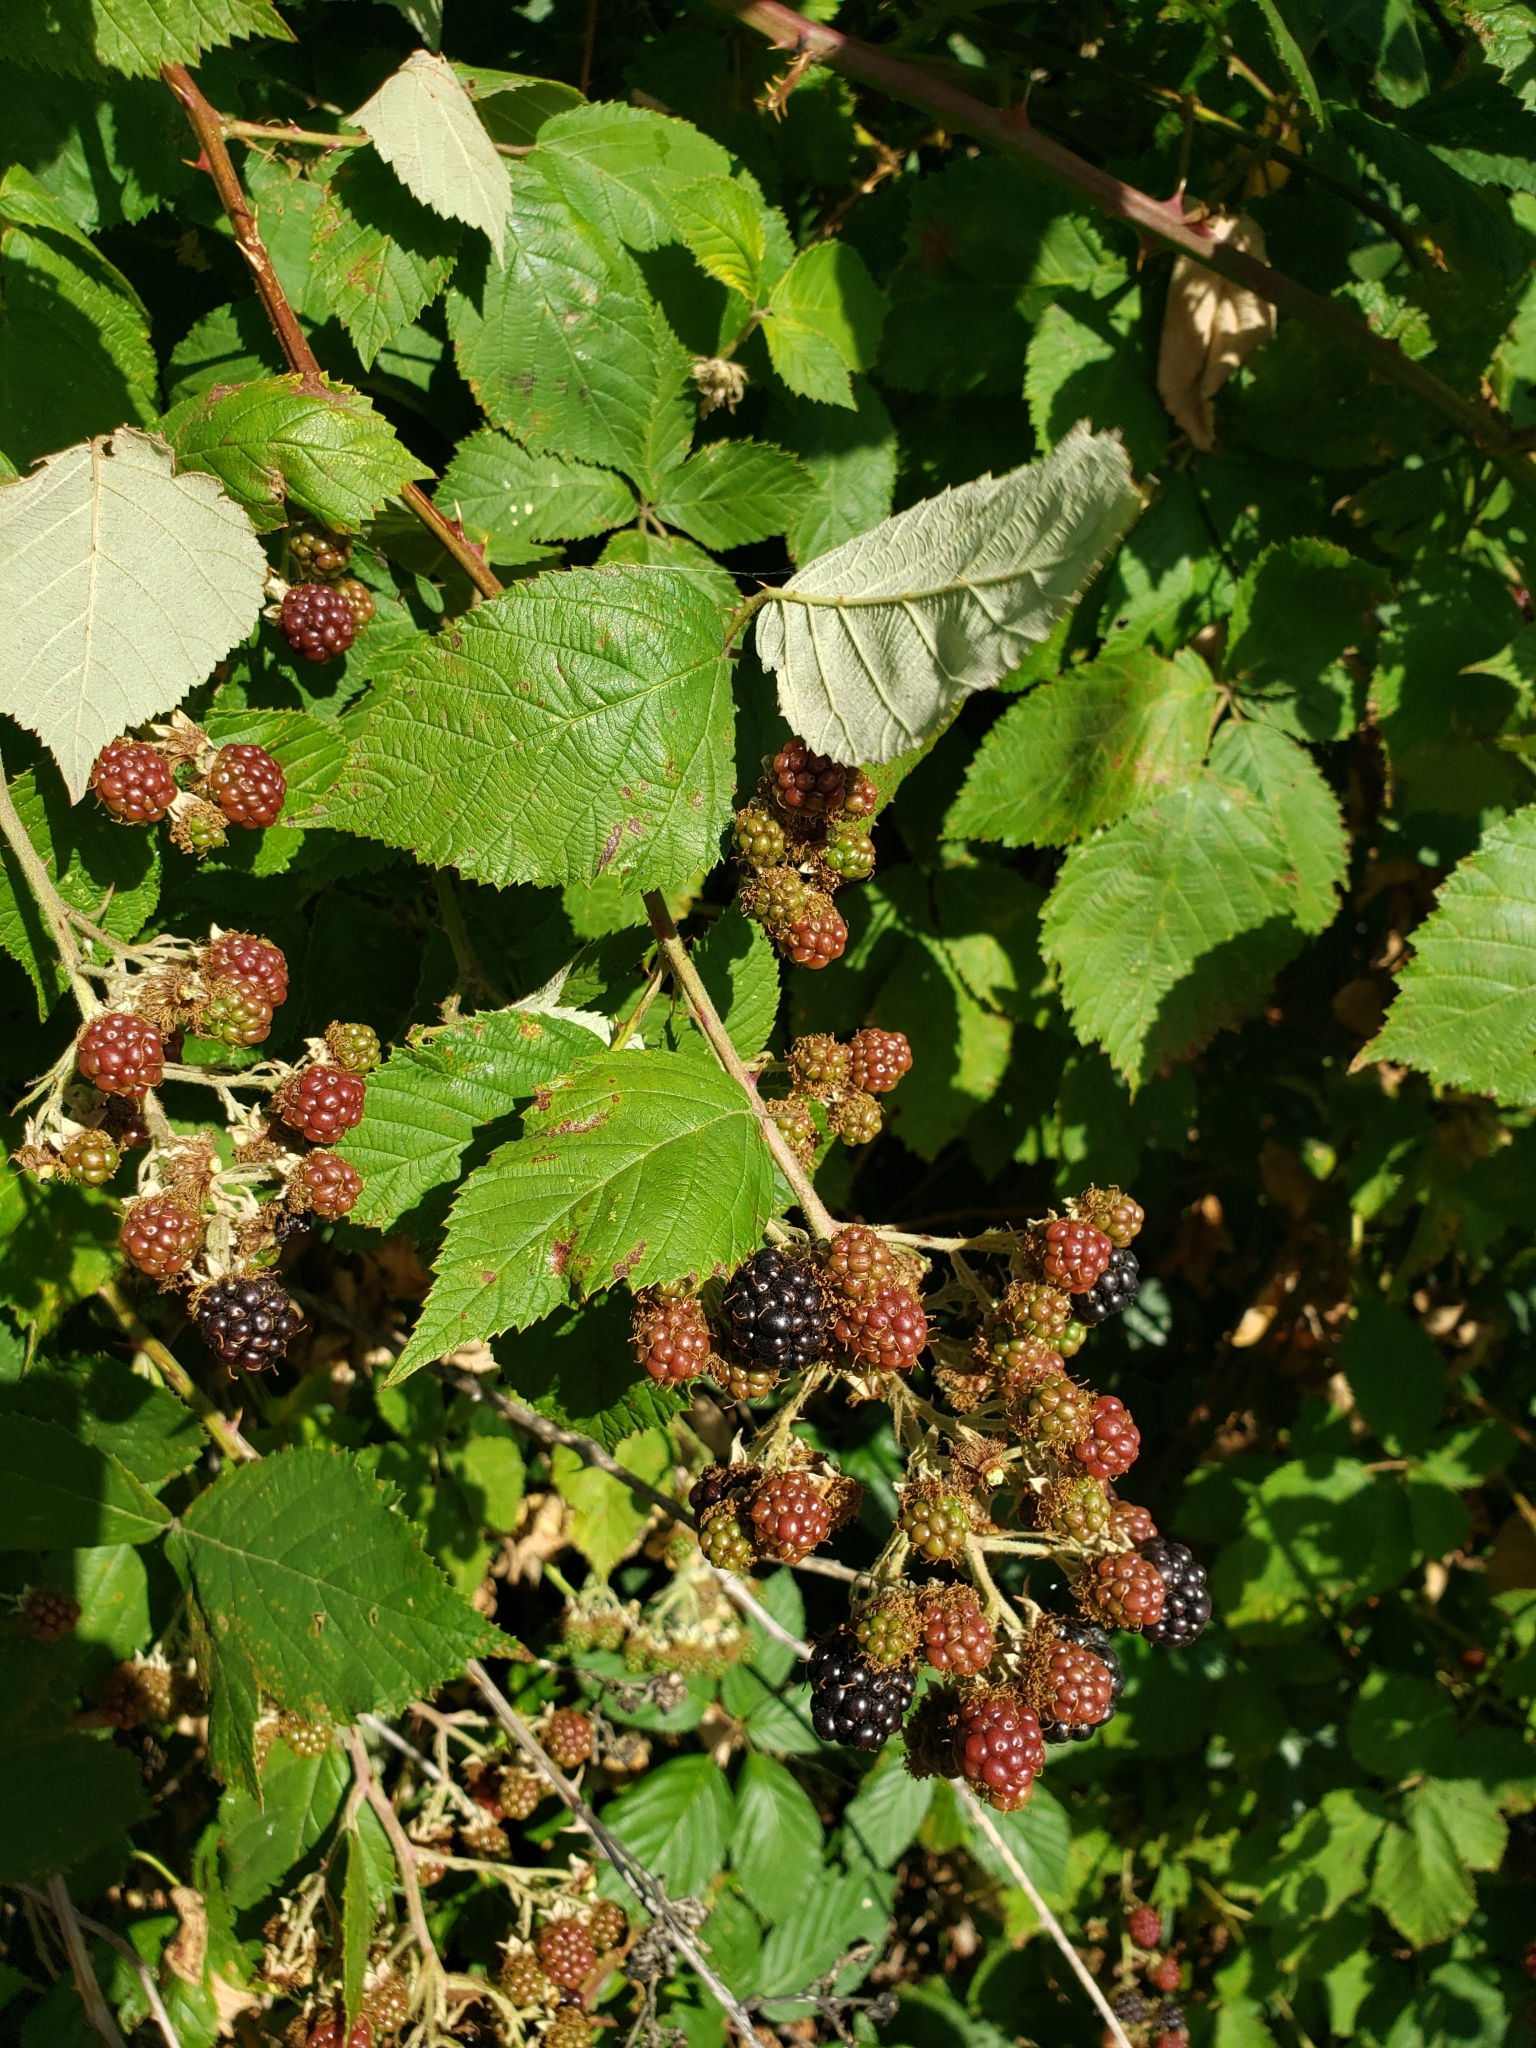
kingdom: Plantae
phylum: Tracheophyta
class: Magnoliopsida
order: Rosales
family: Rosaceae
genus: Rubus
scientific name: Rubus bifrons
